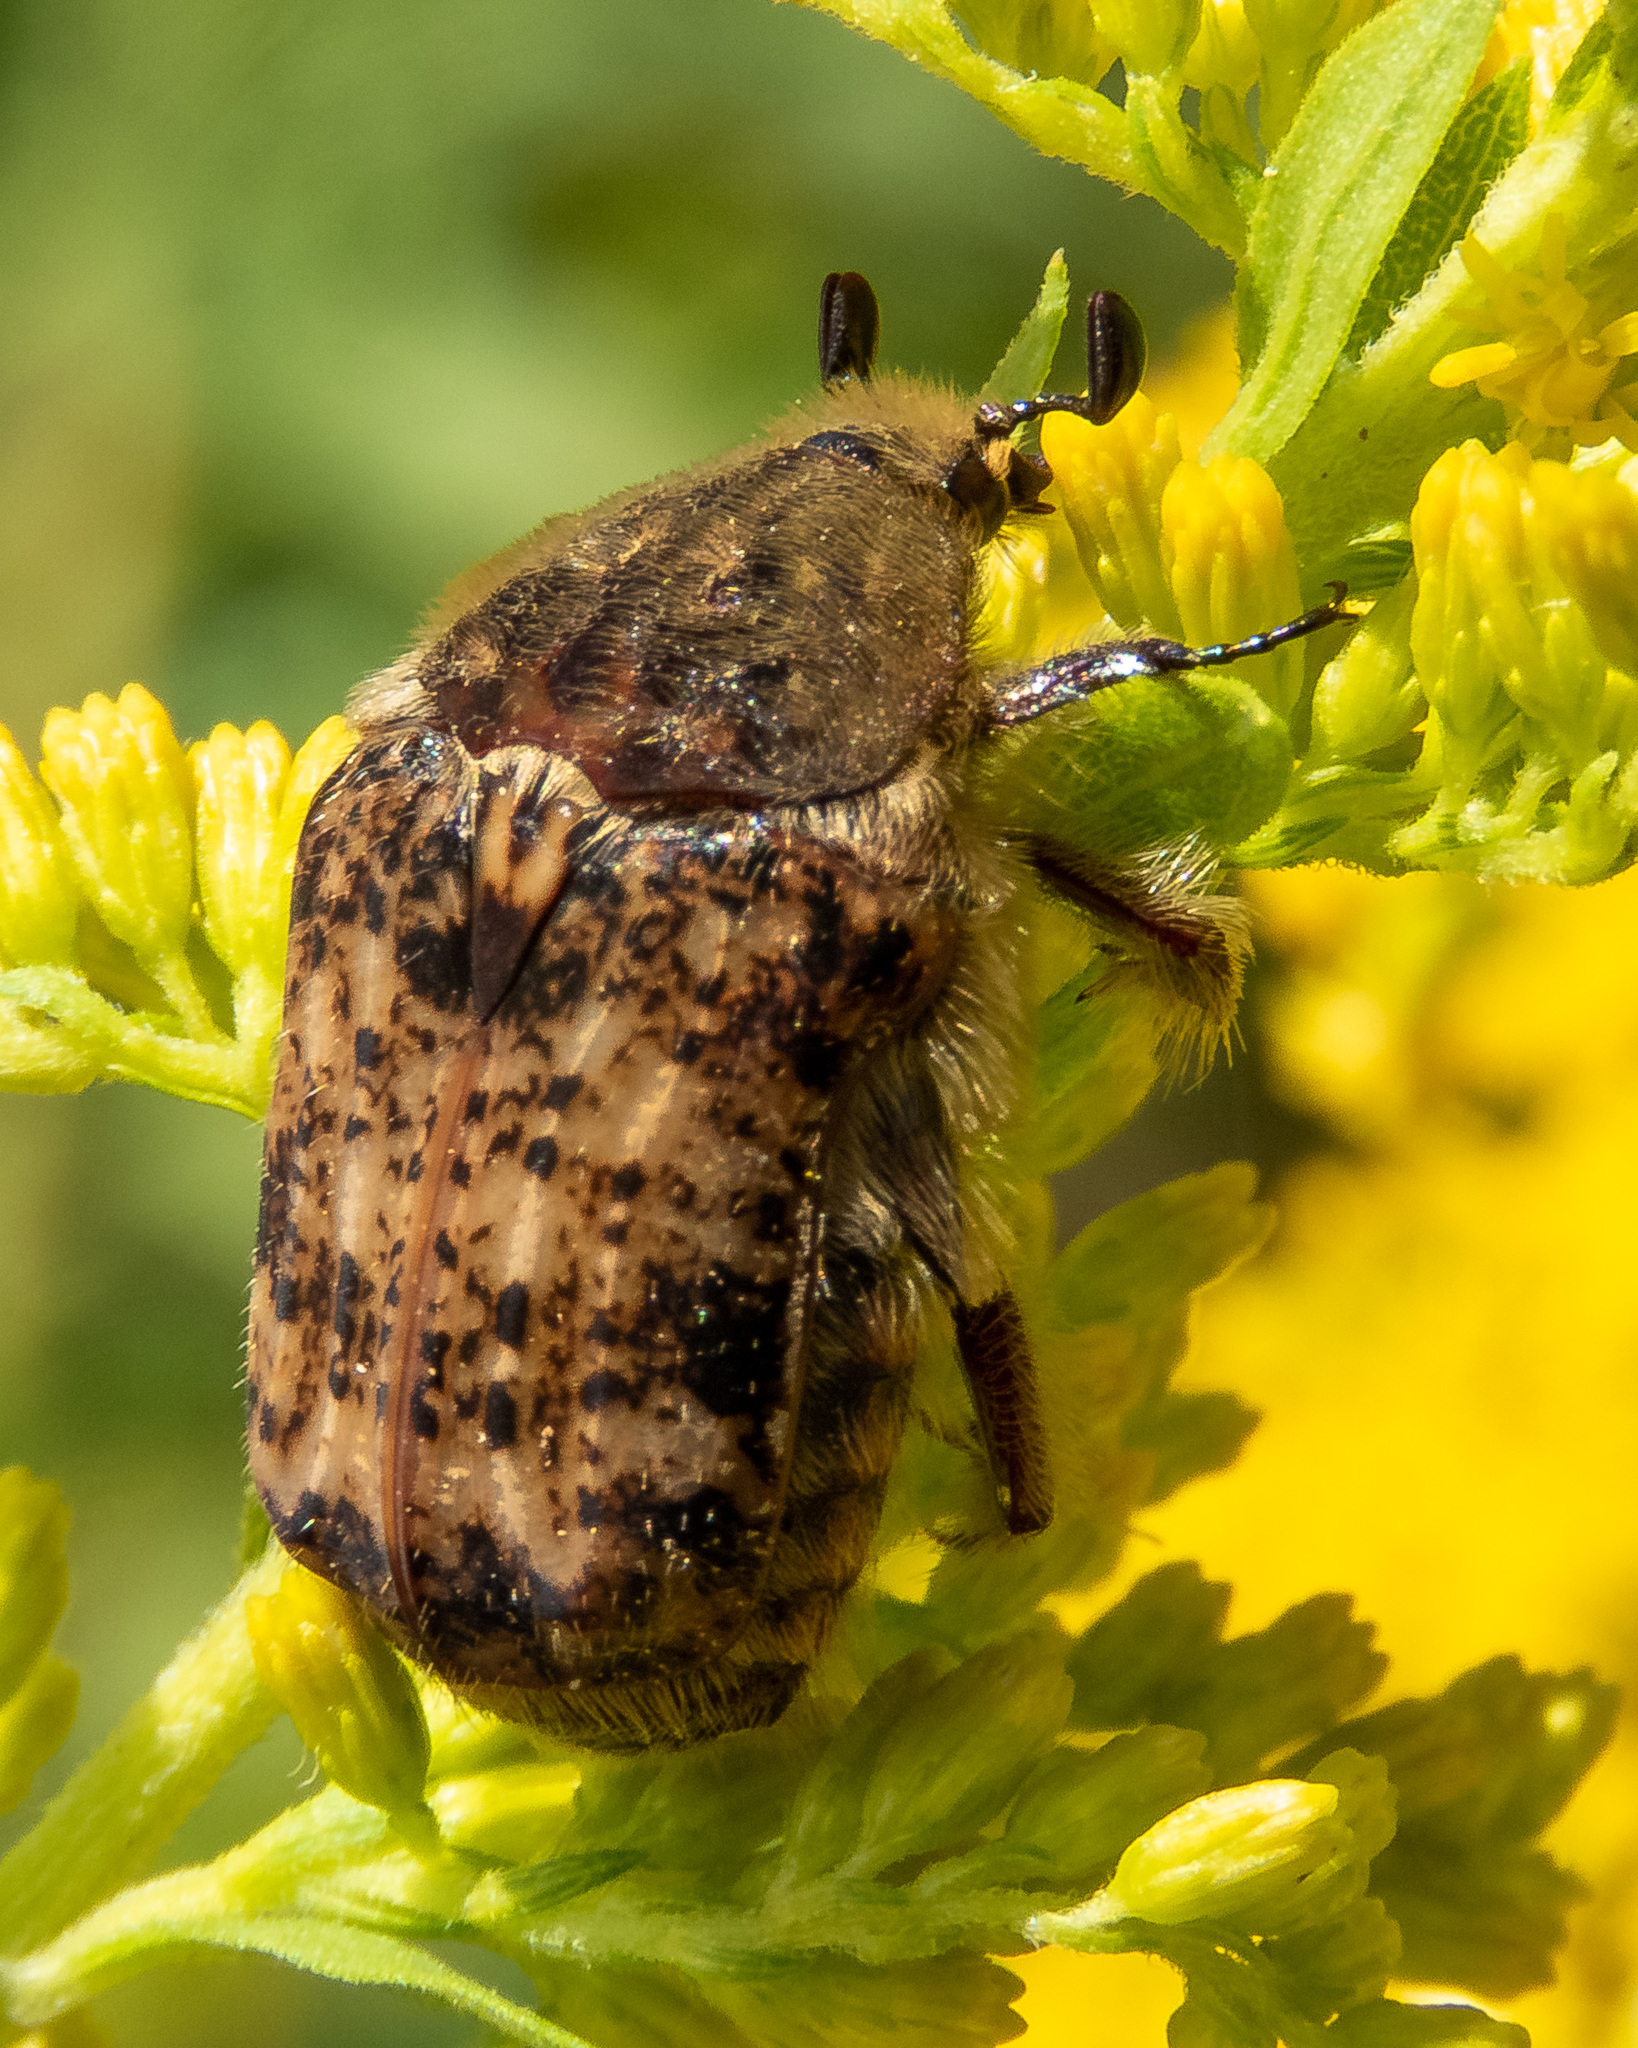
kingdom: Animalia
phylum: Arthropoda
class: Insecta
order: Coleoptera
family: Scarabaeidae
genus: Euphoria
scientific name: Euphoria inda
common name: Bumble flower beetle
